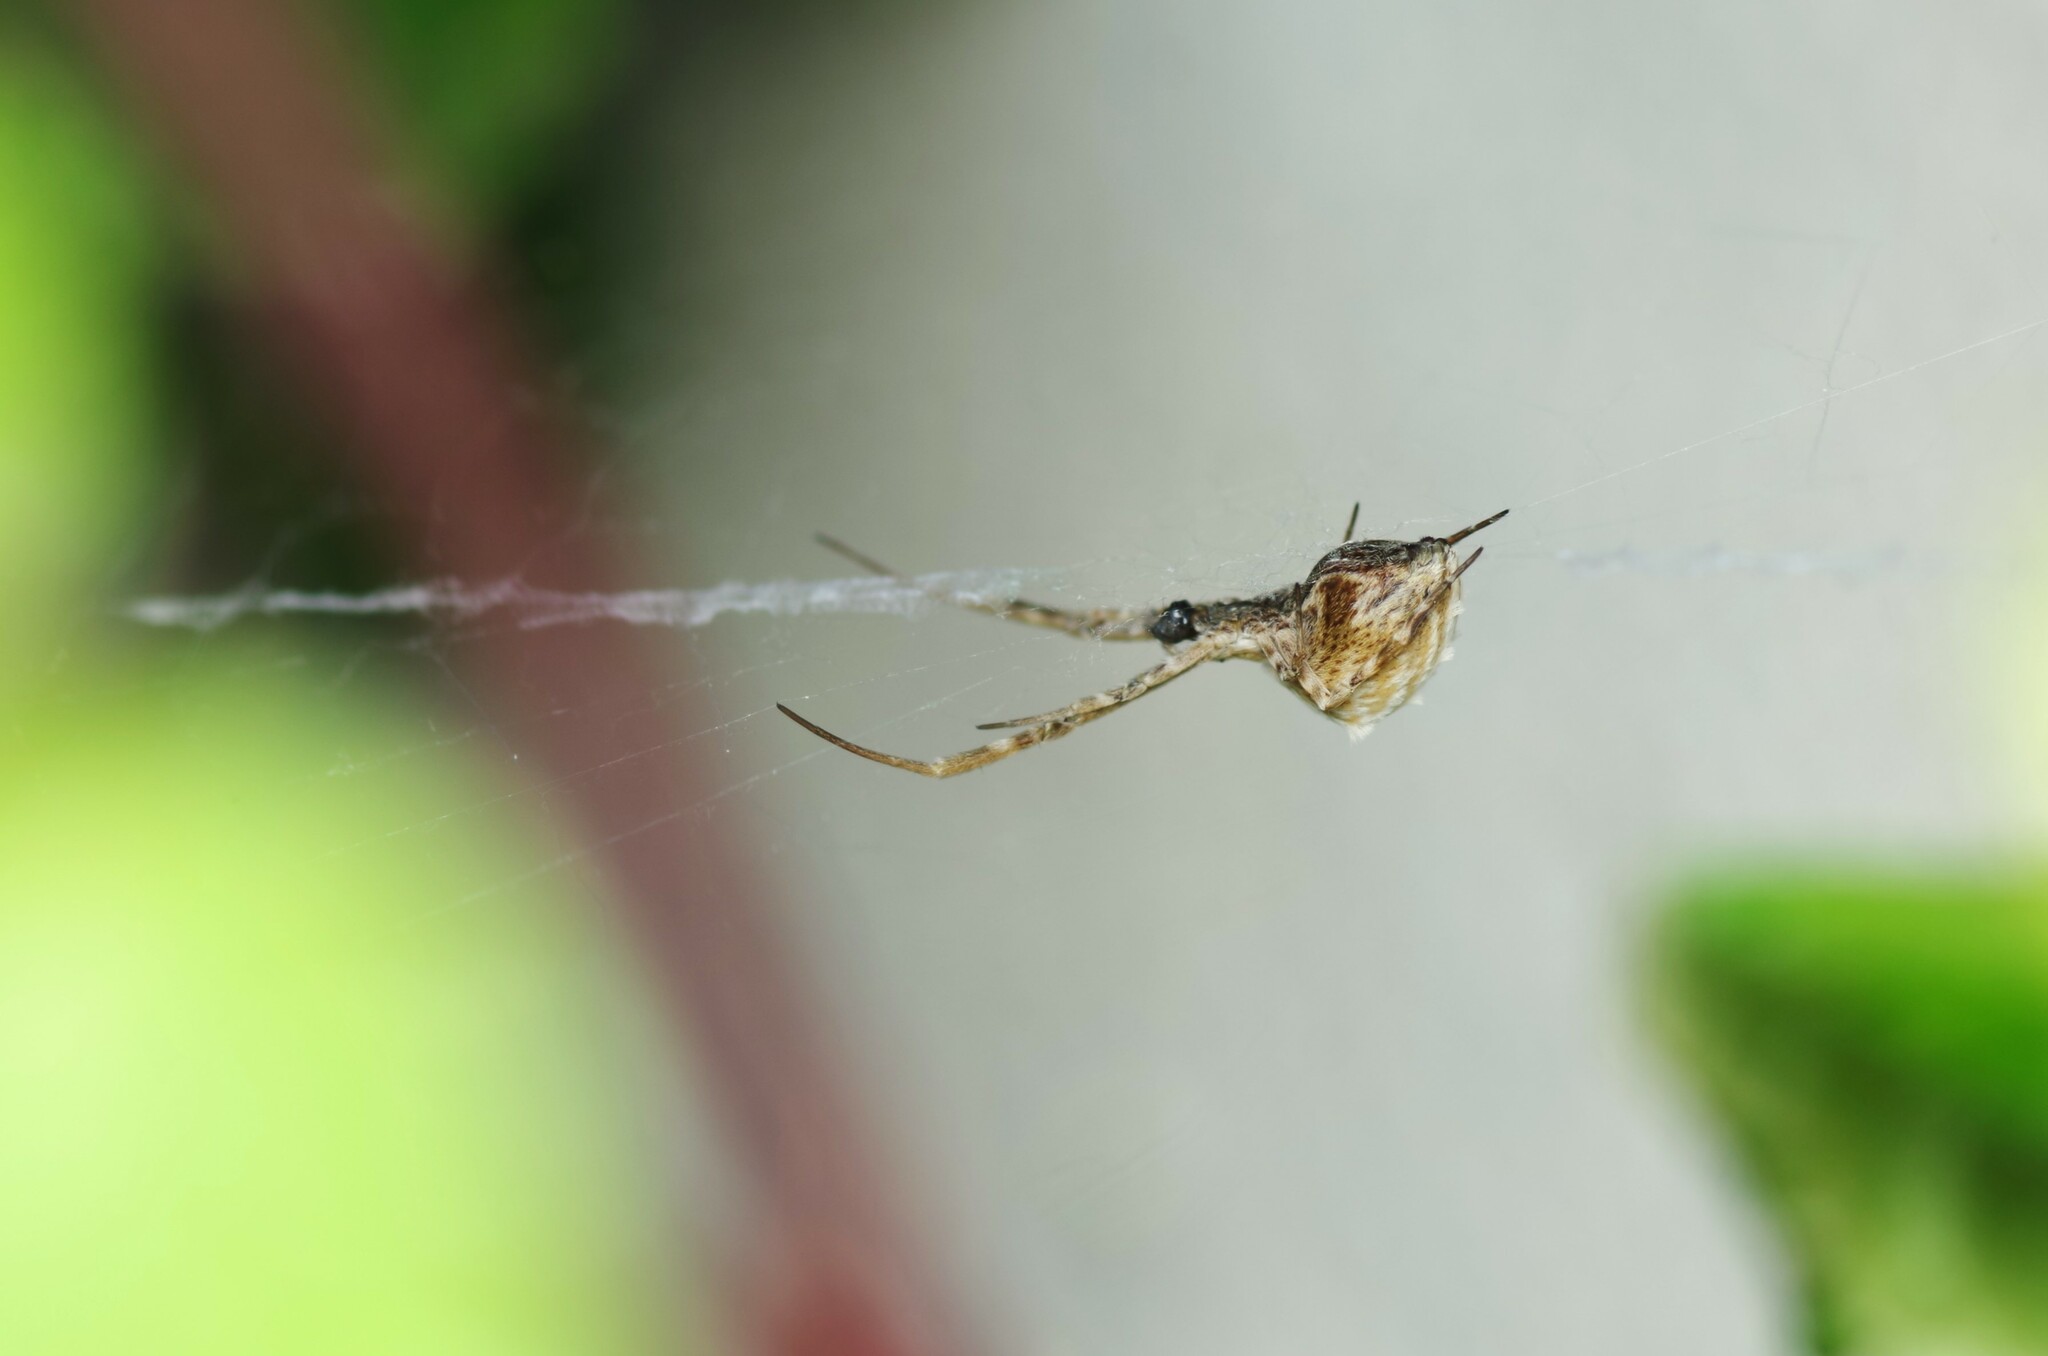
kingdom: Animalia
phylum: Arthropoda
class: Arachnida
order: Araneae
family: Uloboridae
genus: Uloborus
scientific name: Uloborus walckenaerius
